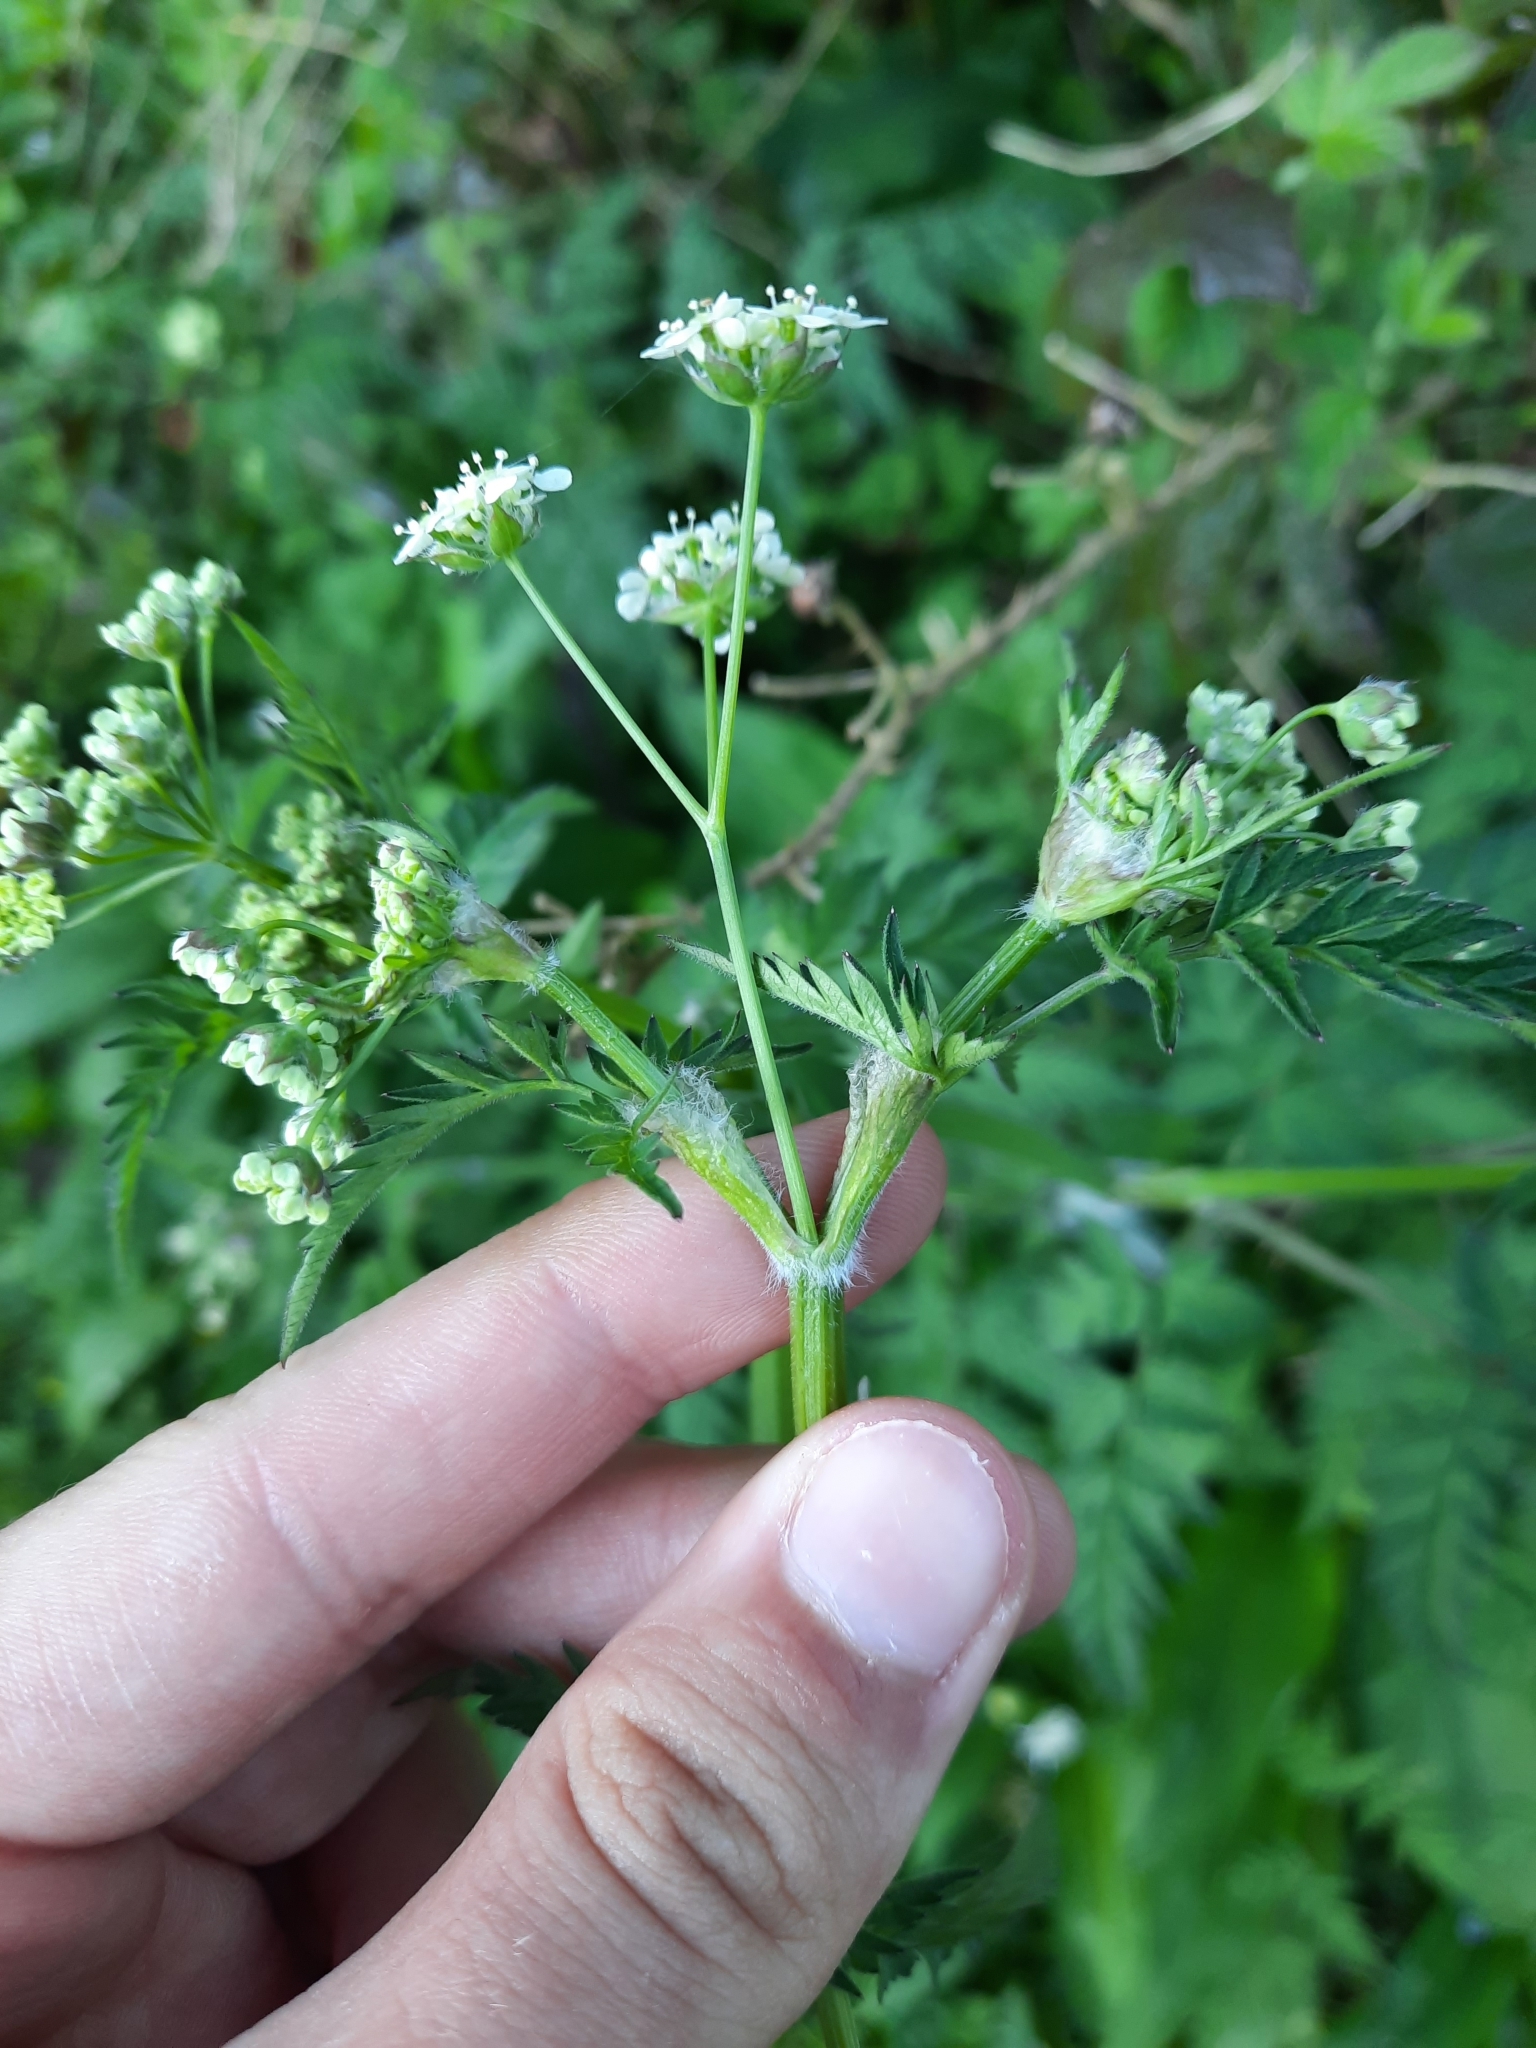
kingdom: Plantae
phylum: Tracheophyta
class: Magnoliopsida
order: Apiales
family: Apiaceae
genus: Anthriscus
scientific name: Anthriscus sylvestris
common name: Cow parsley
